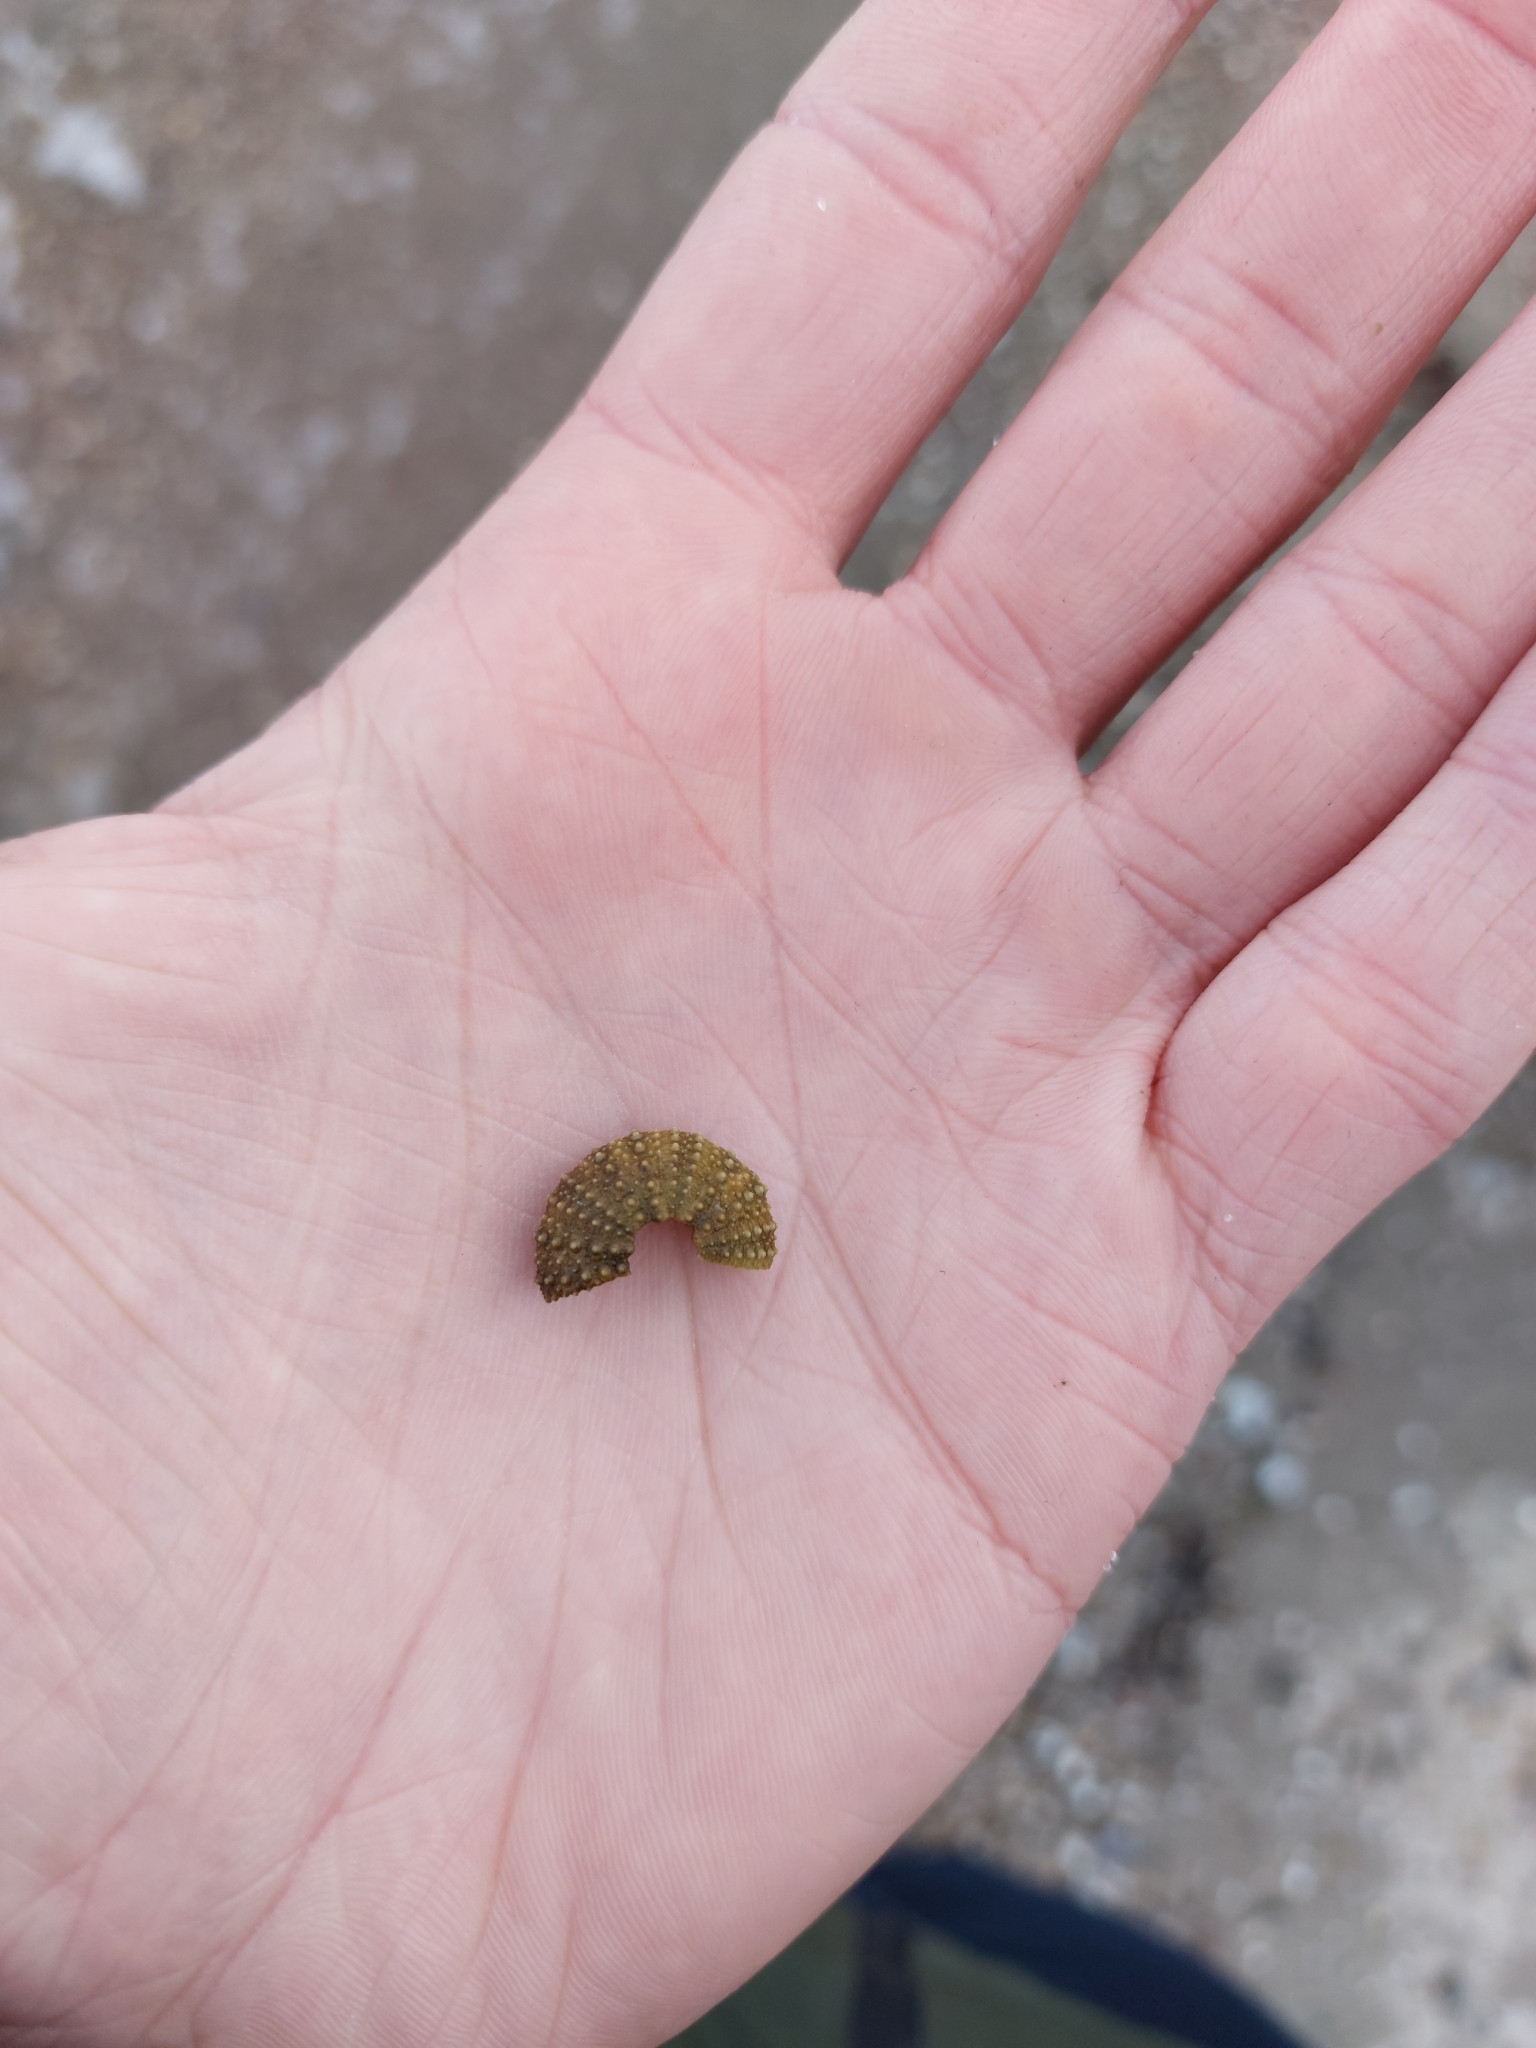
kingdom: Animalia
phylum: Echinodermata
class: Echinoidea
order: Camarodonta
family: Parechinidae
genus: Psammechinus
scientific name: Psammechinus miliaris
